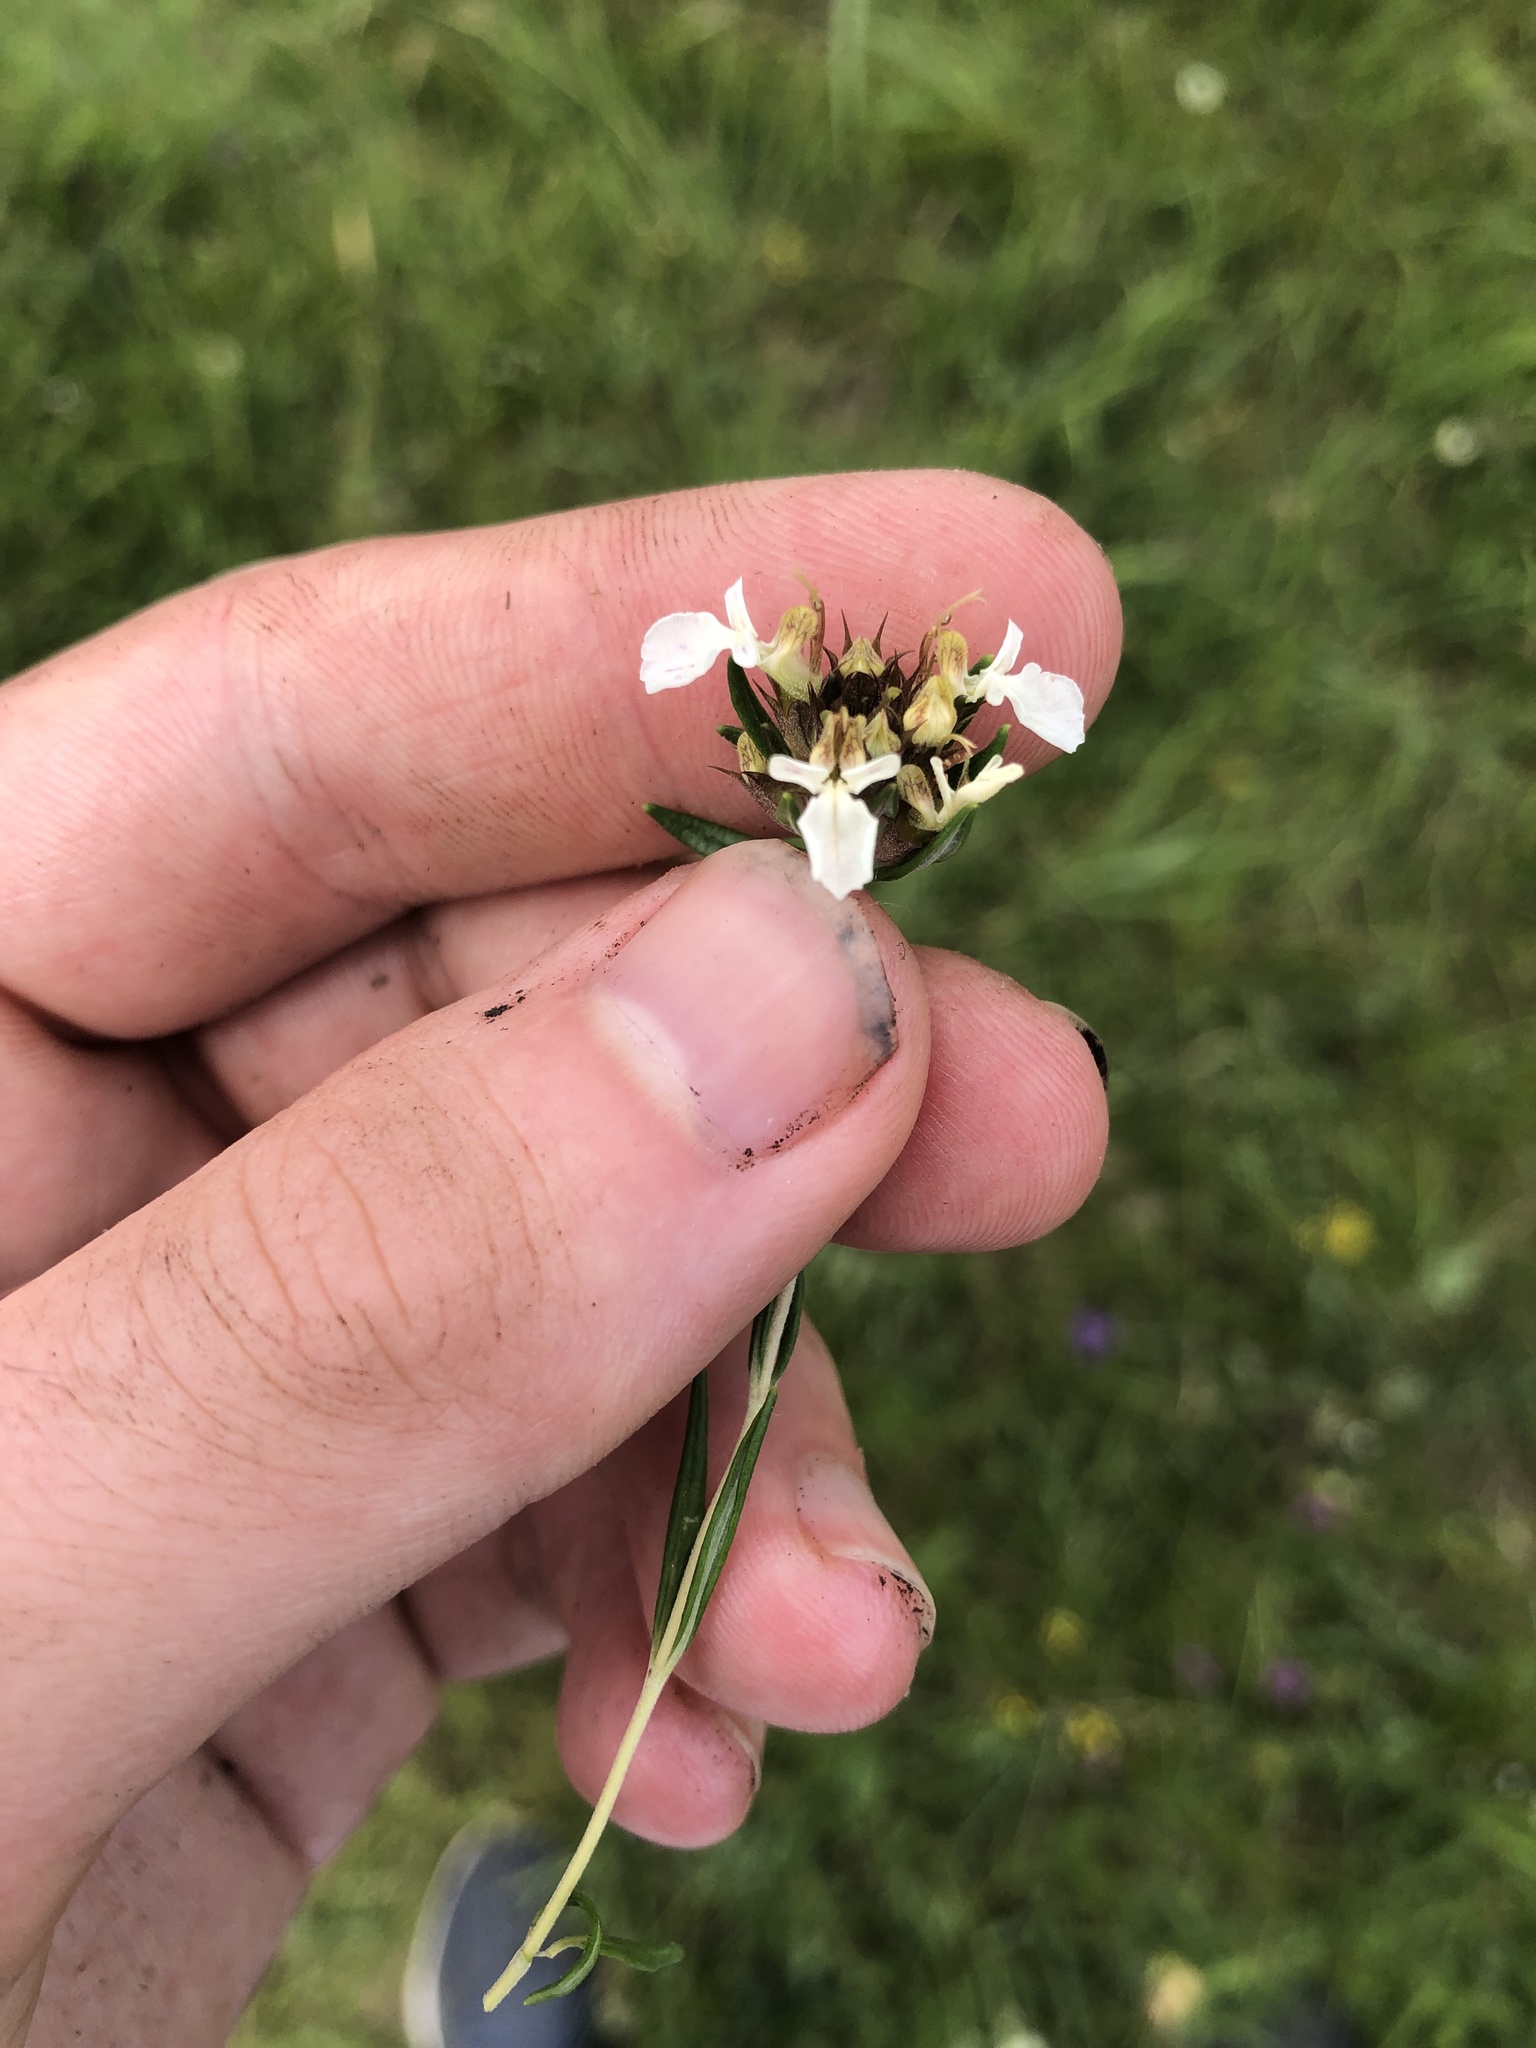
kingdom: Plantae
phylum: Tracheophyta
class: Magnoliopsida
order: Lamiales
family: Lamiaceae
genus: Teucrium
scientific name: Teucrium montanum
